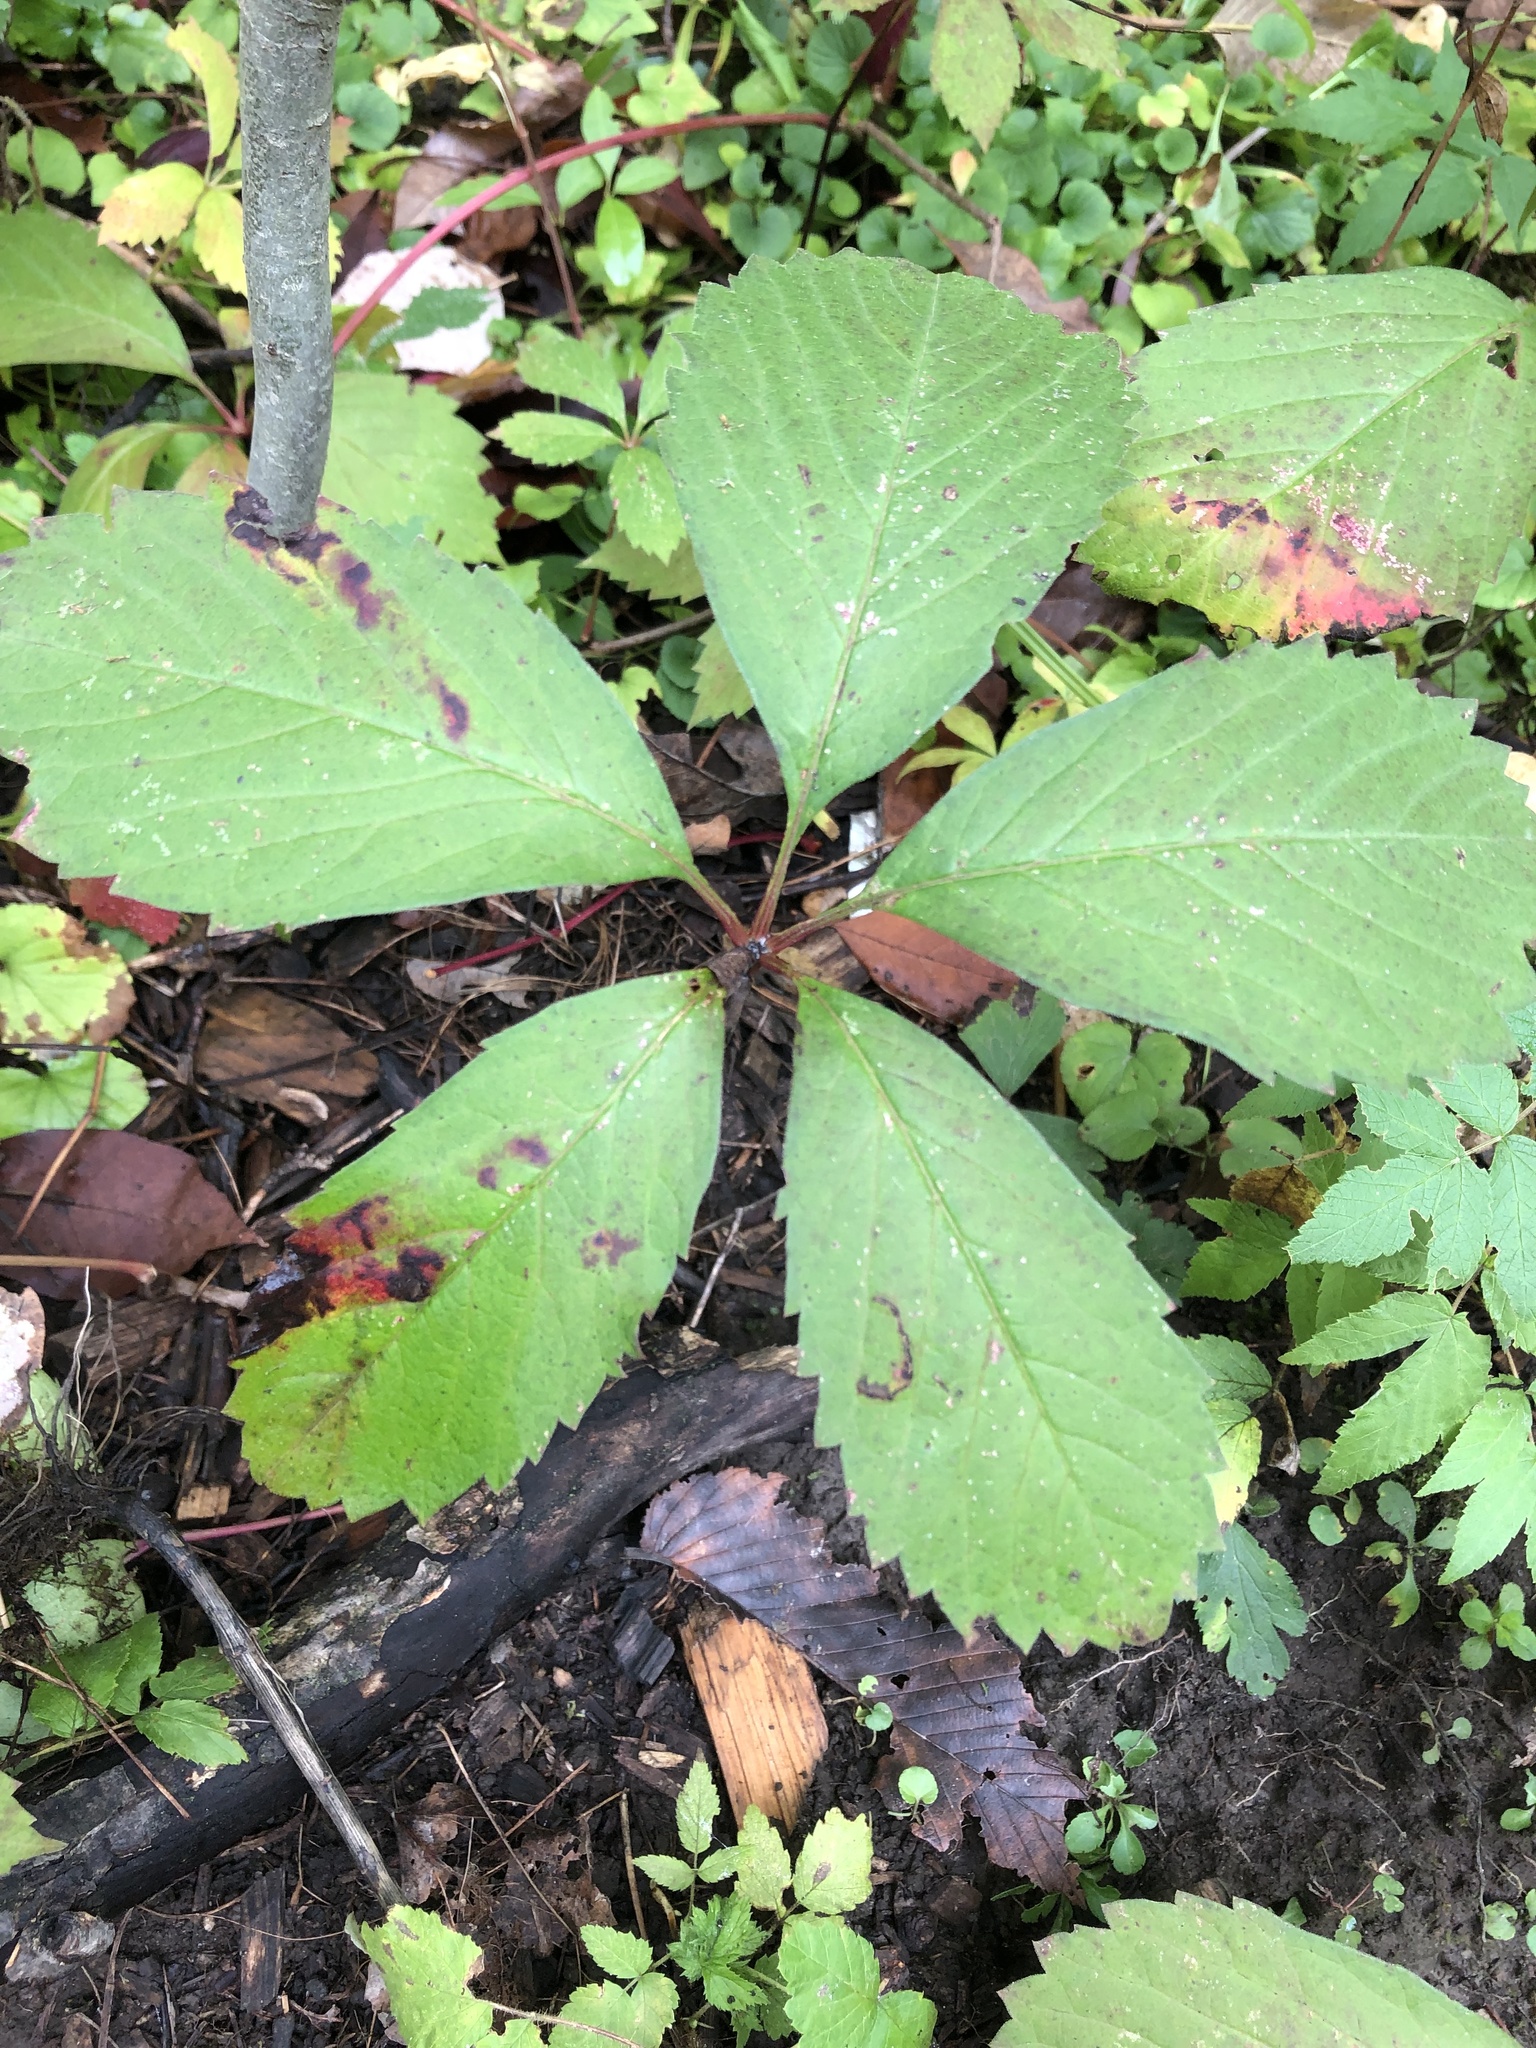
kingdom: Plantae
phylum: Tracheophyta
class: Magnoliopsida
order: Vitales
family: Vitaceae
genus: Parthenocissus
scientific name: Parthenocissus inserta
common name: False virginia-creeper
